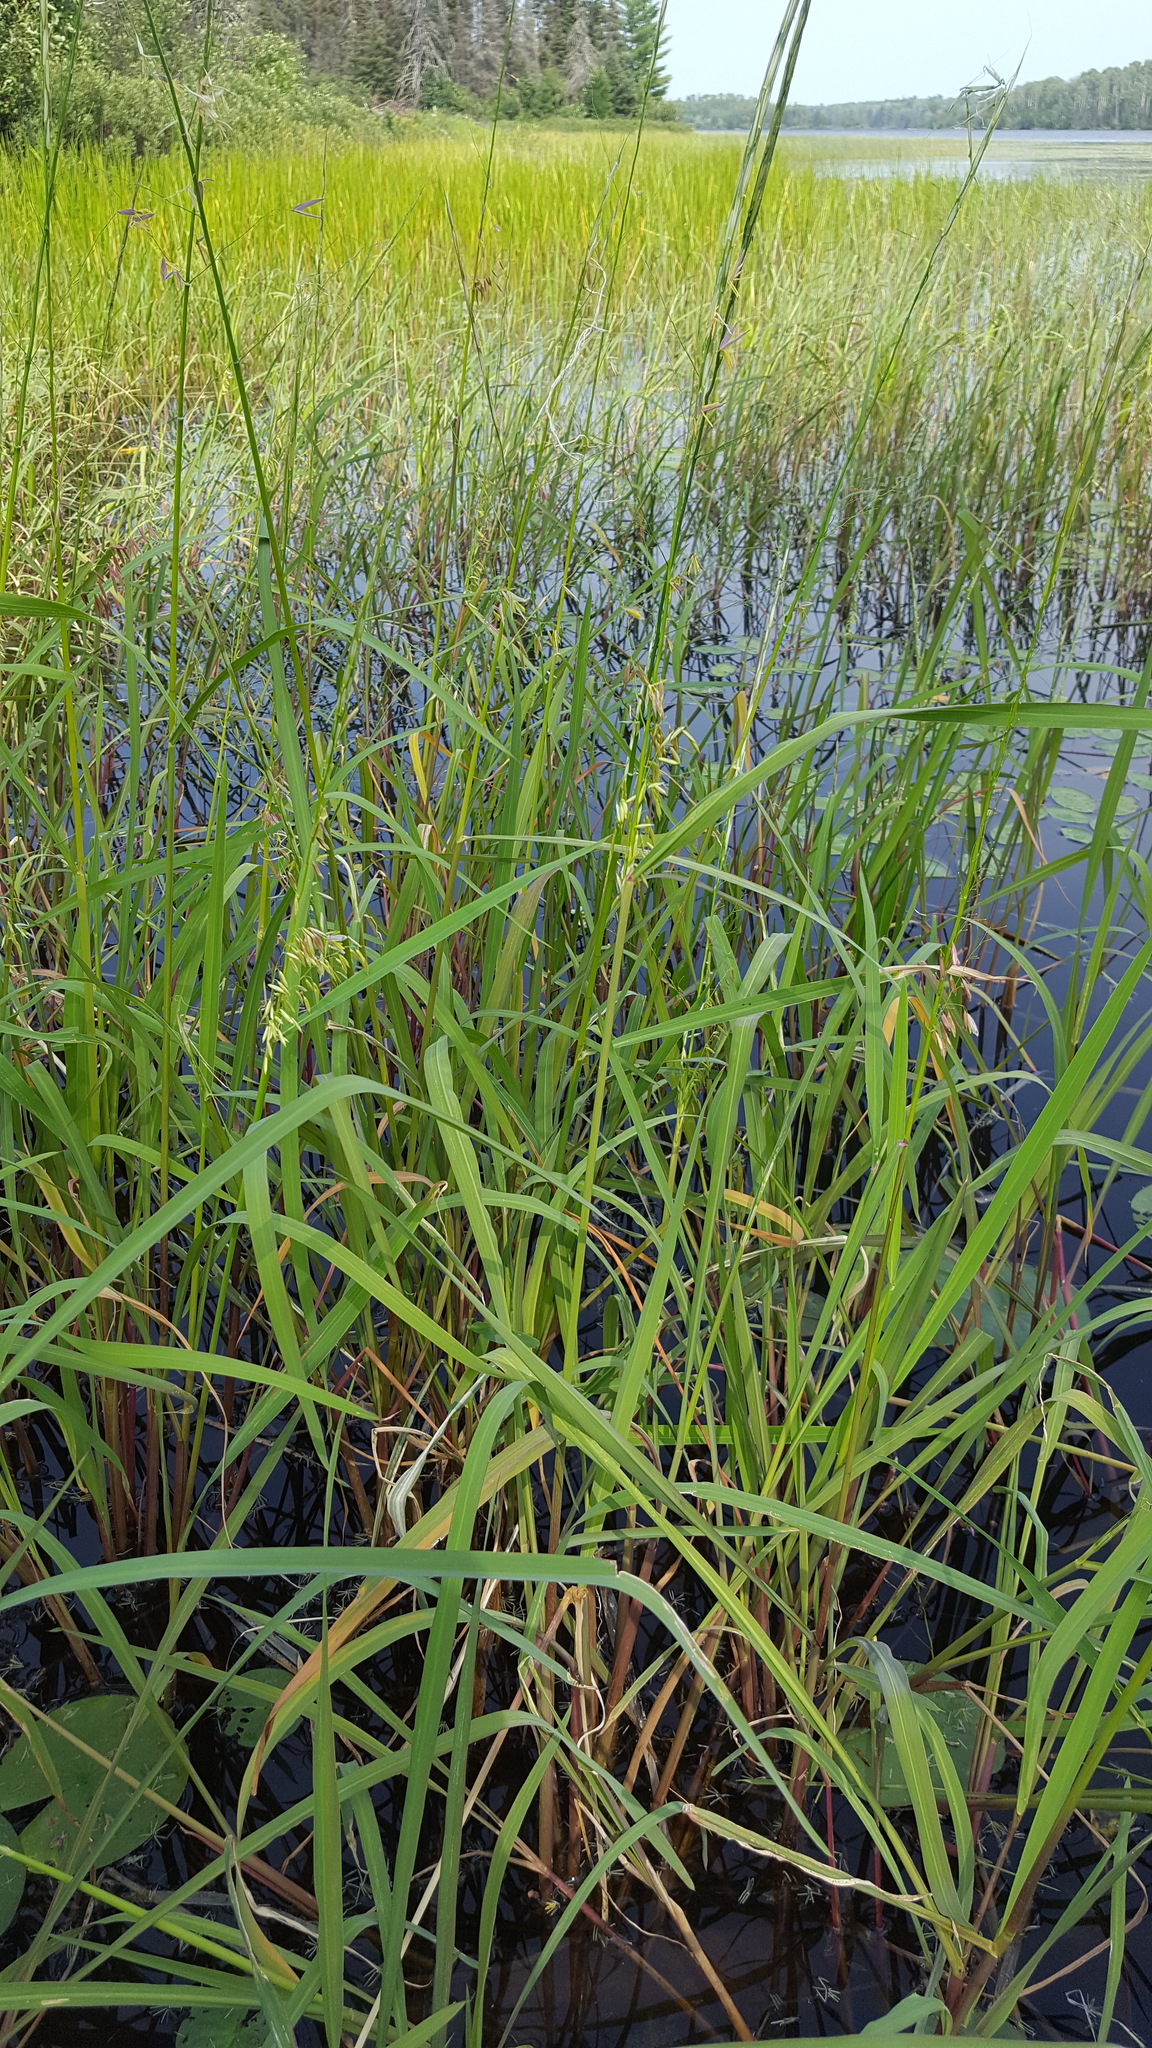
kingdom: Plantae
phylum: Tracheophyta
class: Liliopsida
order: Poales
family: Poaceae
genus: Zizania
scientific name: Zizania palustris
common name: Northern wild rice
